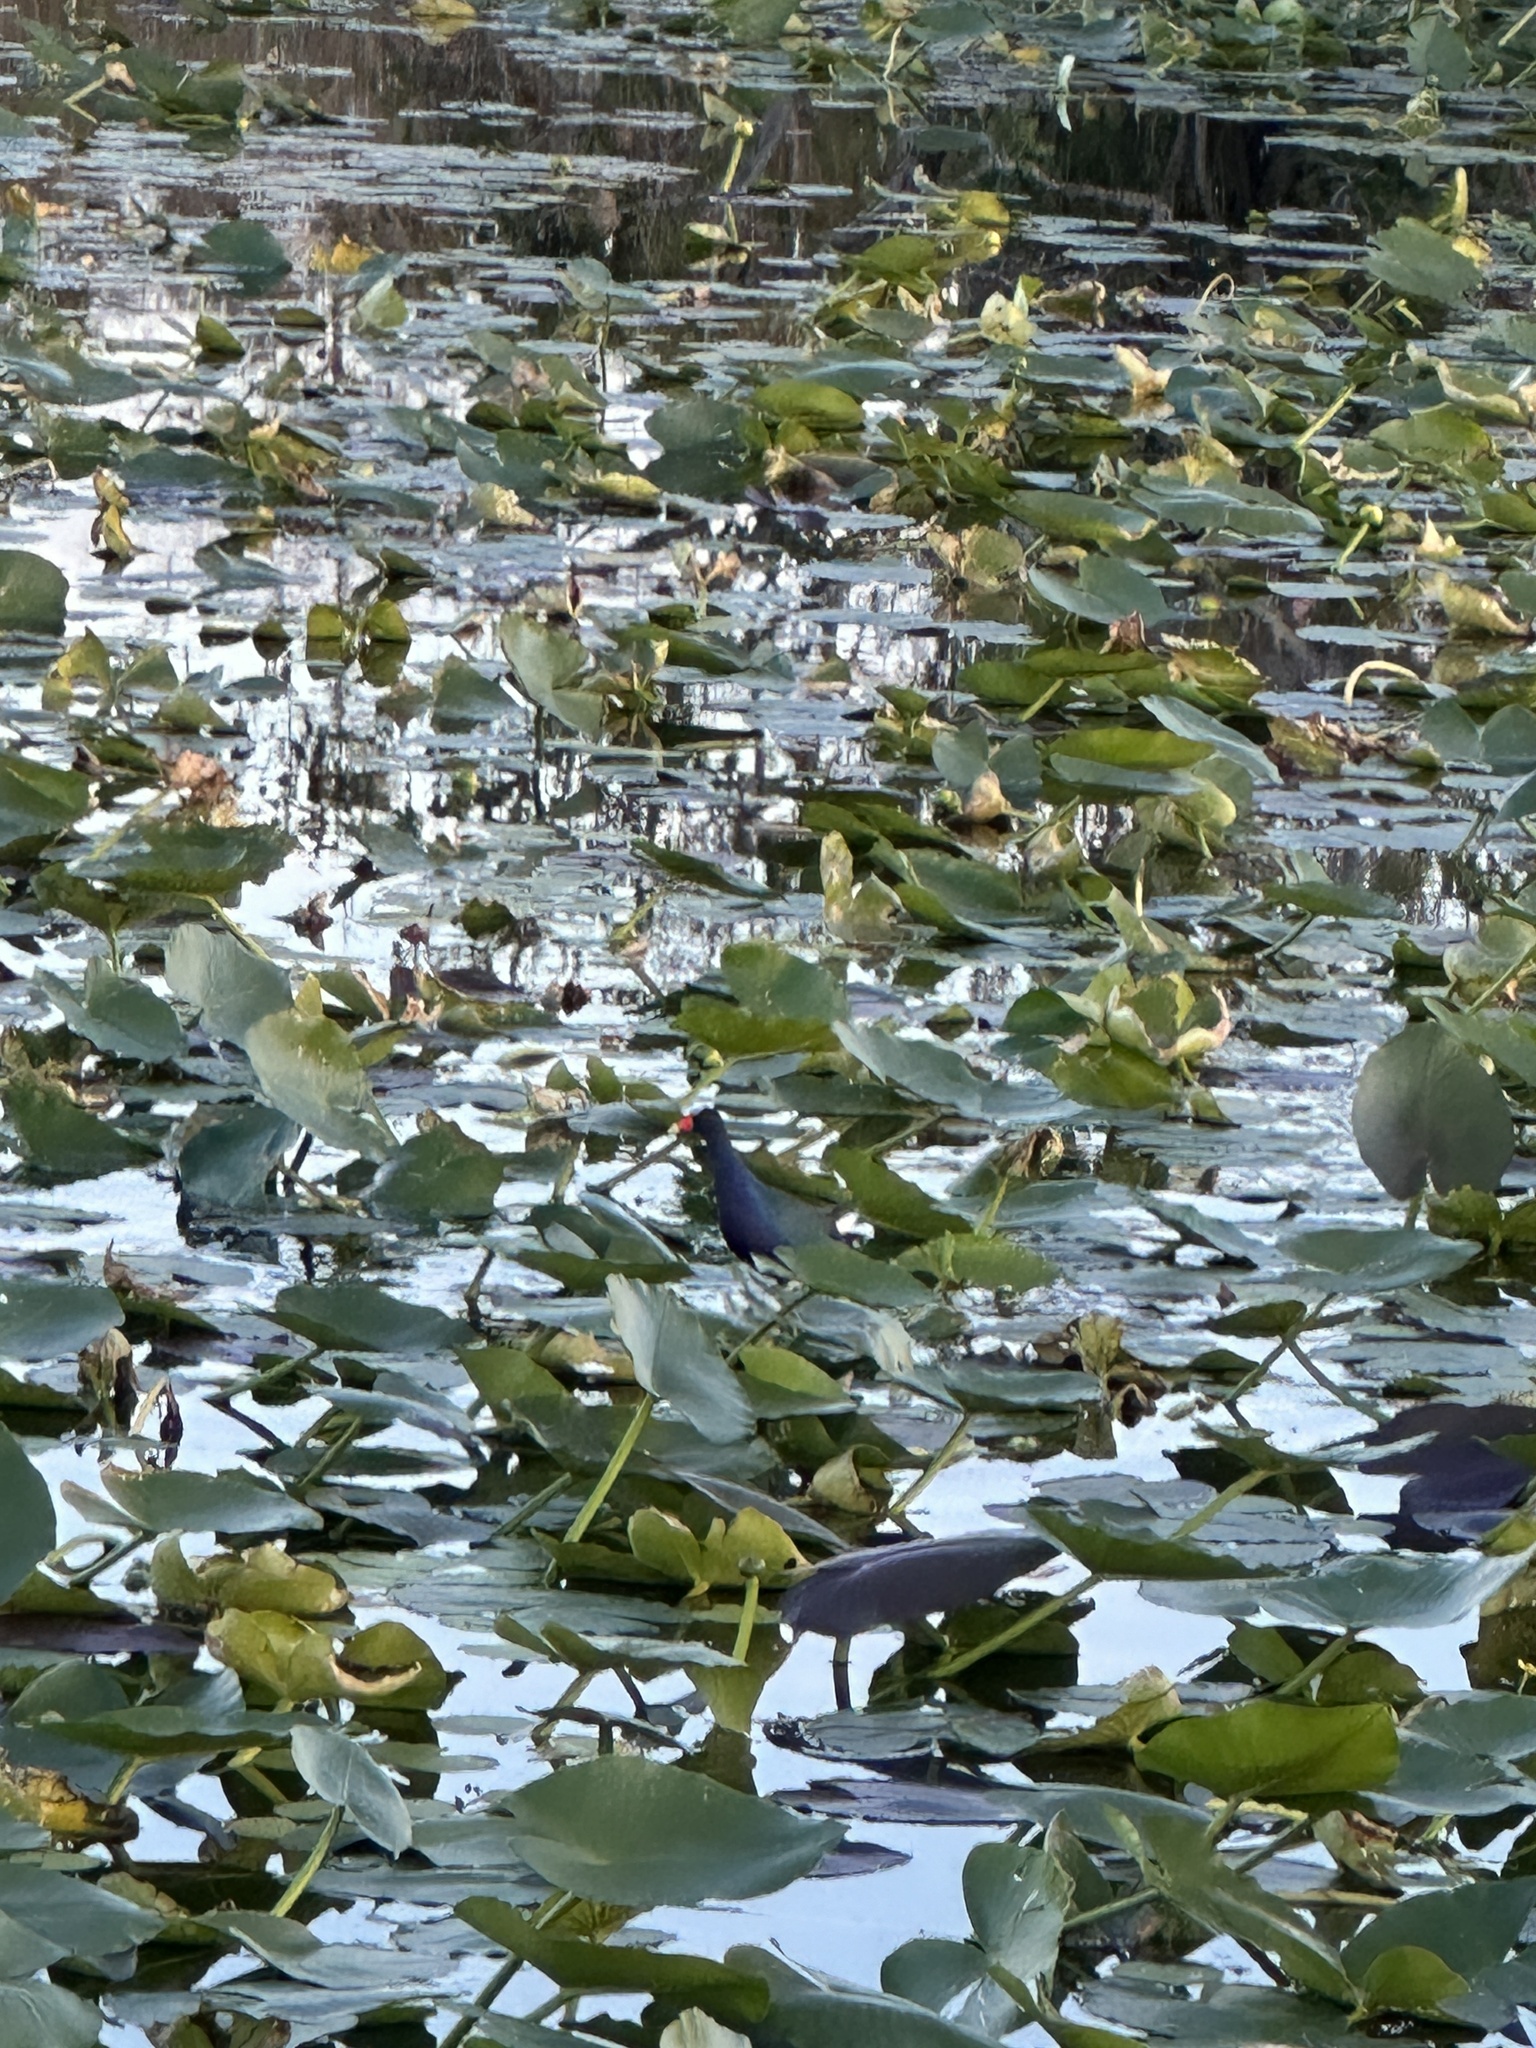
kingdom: Animalia
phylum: Chordata
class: Aves
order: Gruiformes
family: Rallidae
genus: Porphyrio
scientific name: Porphyrio martinica
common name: Purple gallinule
